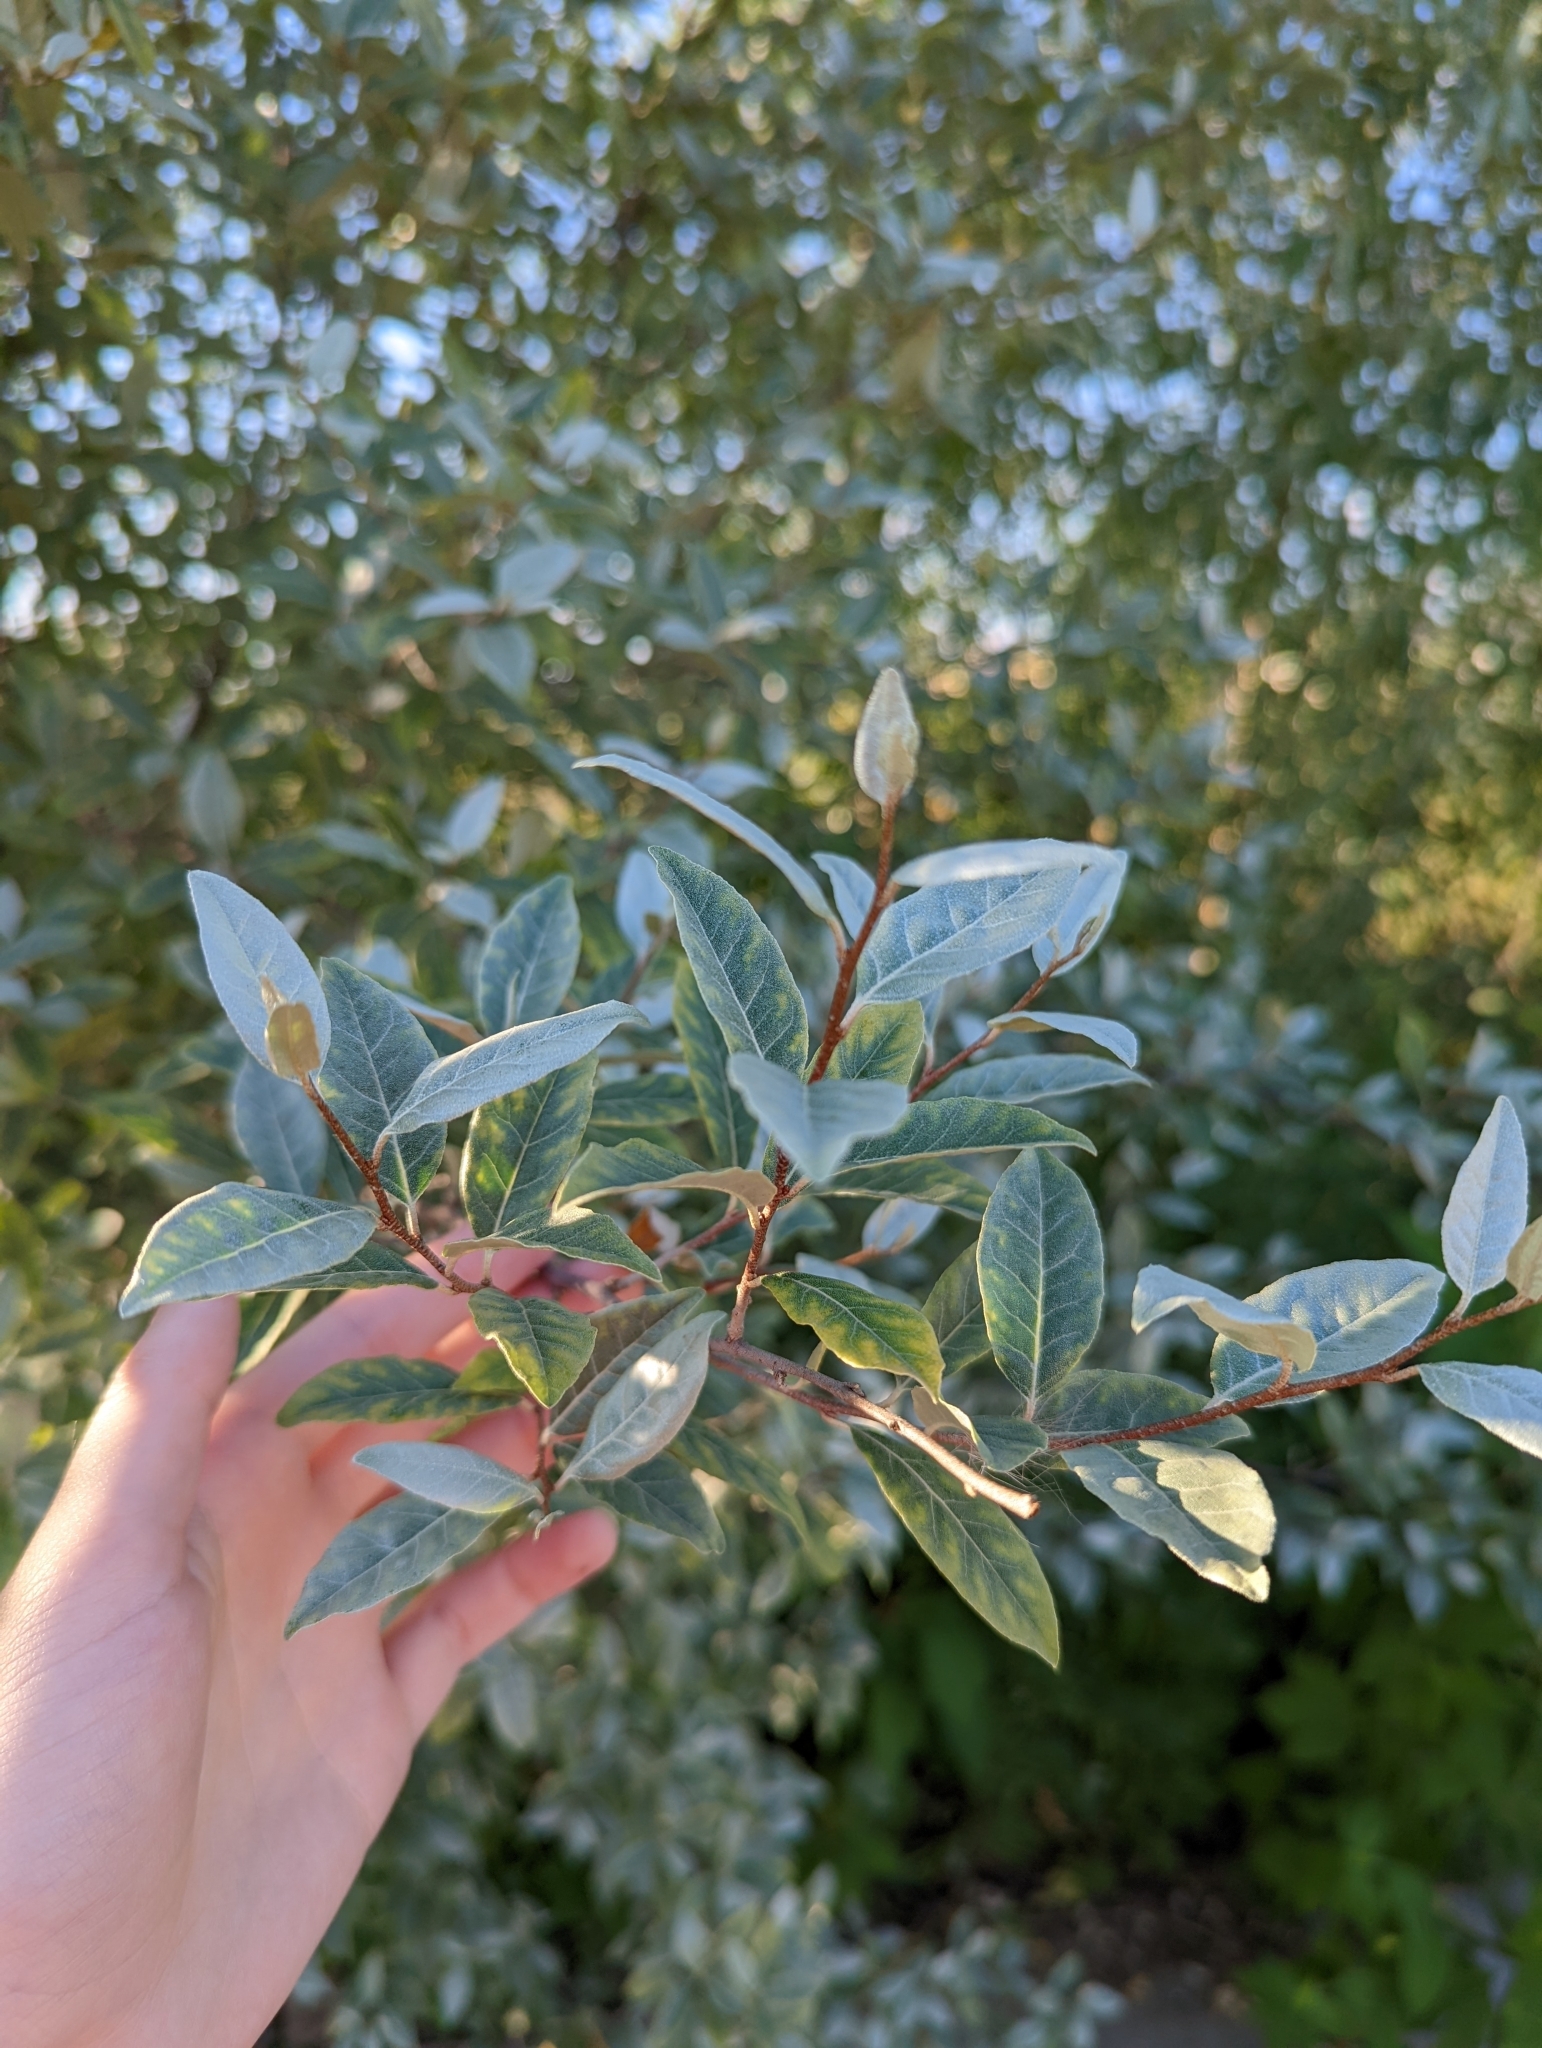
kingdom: Plantae
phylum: Tracheophyta
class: Magnoliopsida
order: Rosales
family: Elaeagnaceae
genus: Elaeagnus
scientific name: Elaeagnus umbellata
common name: Autumn olive
